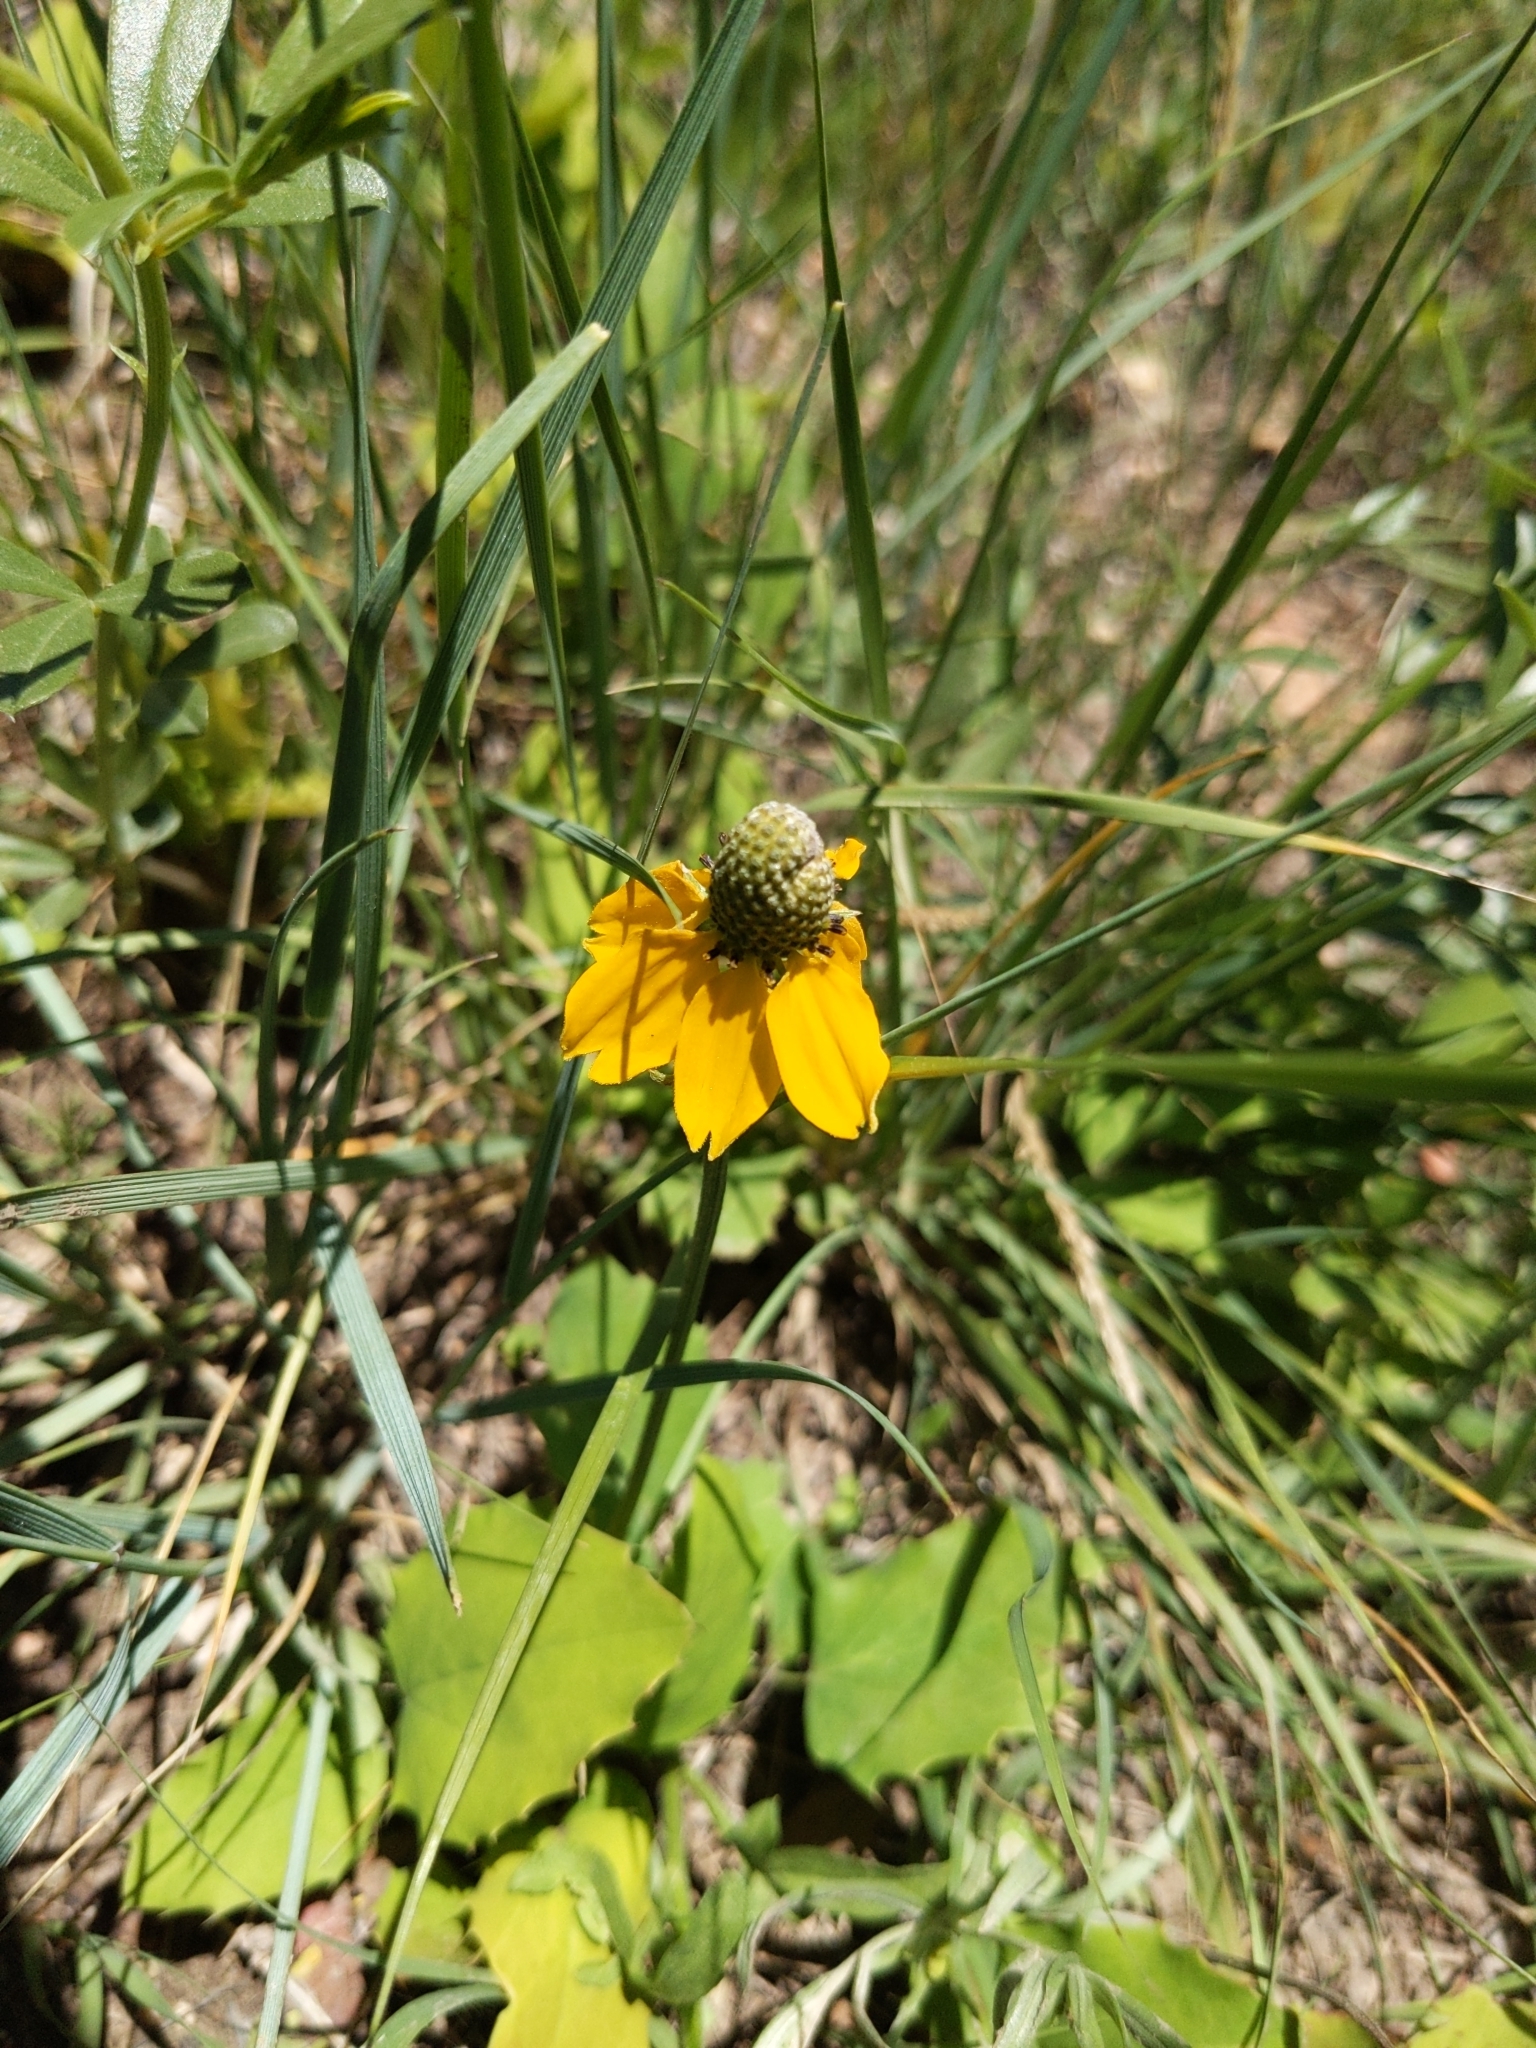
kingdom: Plantae
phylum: Tracheophyta
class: Magnoliopsida
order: Asterales
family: Asteraceae
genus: Ratibida
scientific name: Ratibida columnifera
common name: Prairie coneflower
